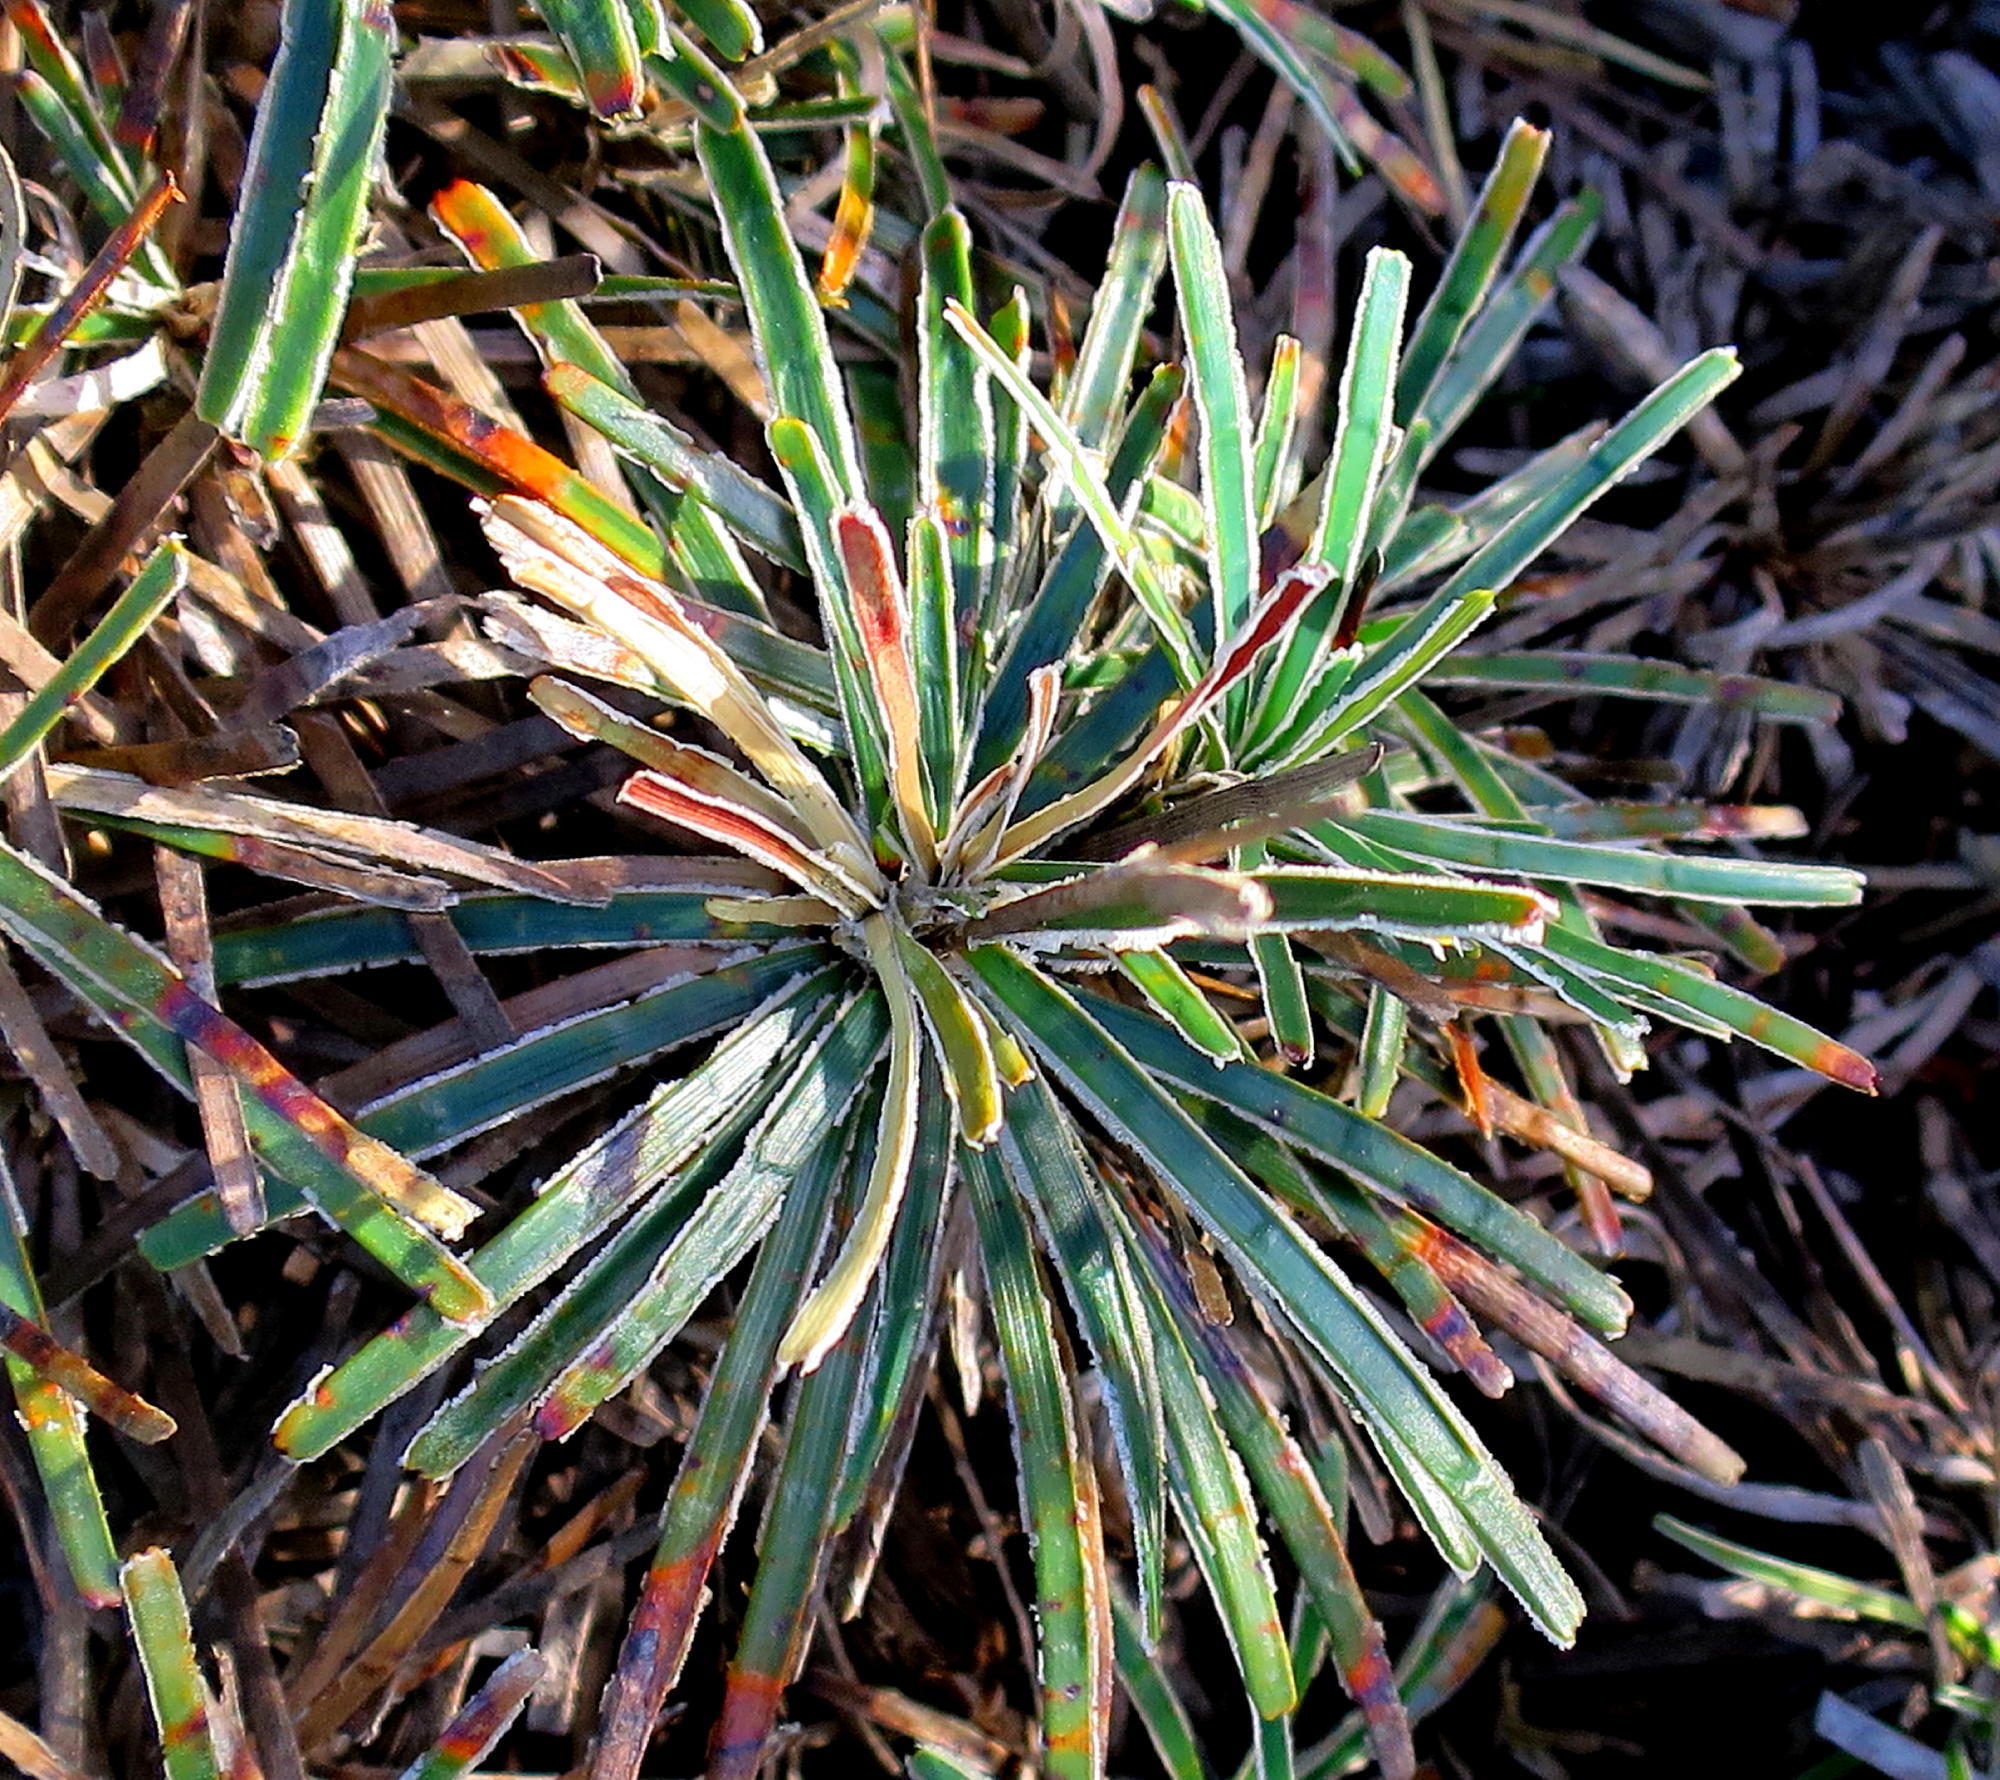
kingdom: Plantae
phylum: Tracheophyta
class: Liliopsida
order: Poales
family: Cyperaceae
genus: Ficinia
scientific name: Ficinia truncata
